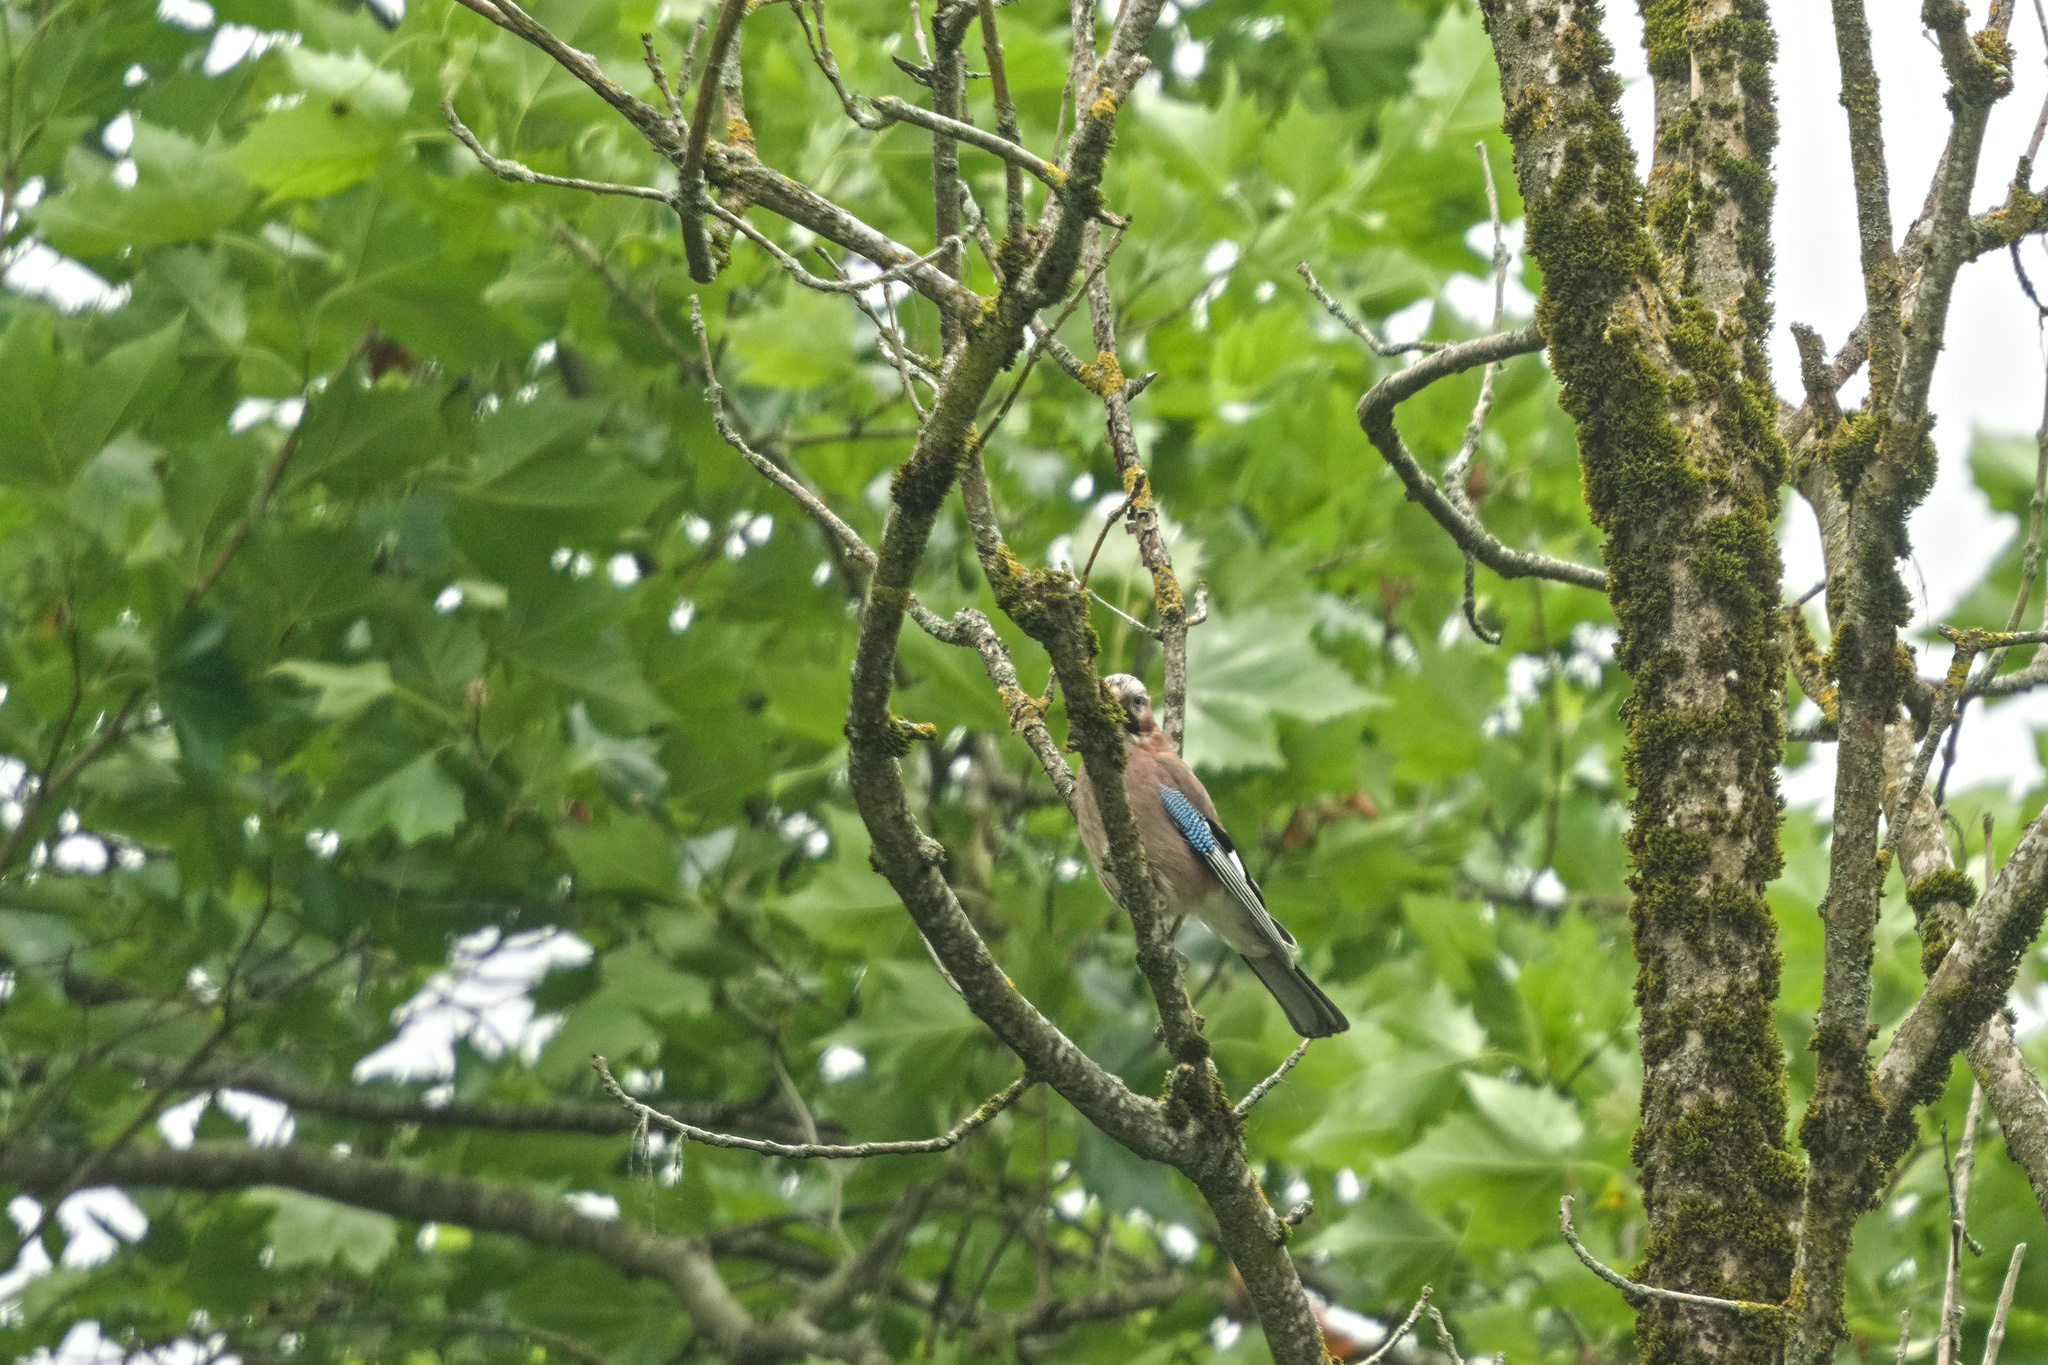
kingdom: Animalia
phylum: Chordata
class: Aves
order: Passeriformes
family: Corvidae
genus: Garrulus
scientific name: Garrulus glandarius
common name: Eurasian jay
